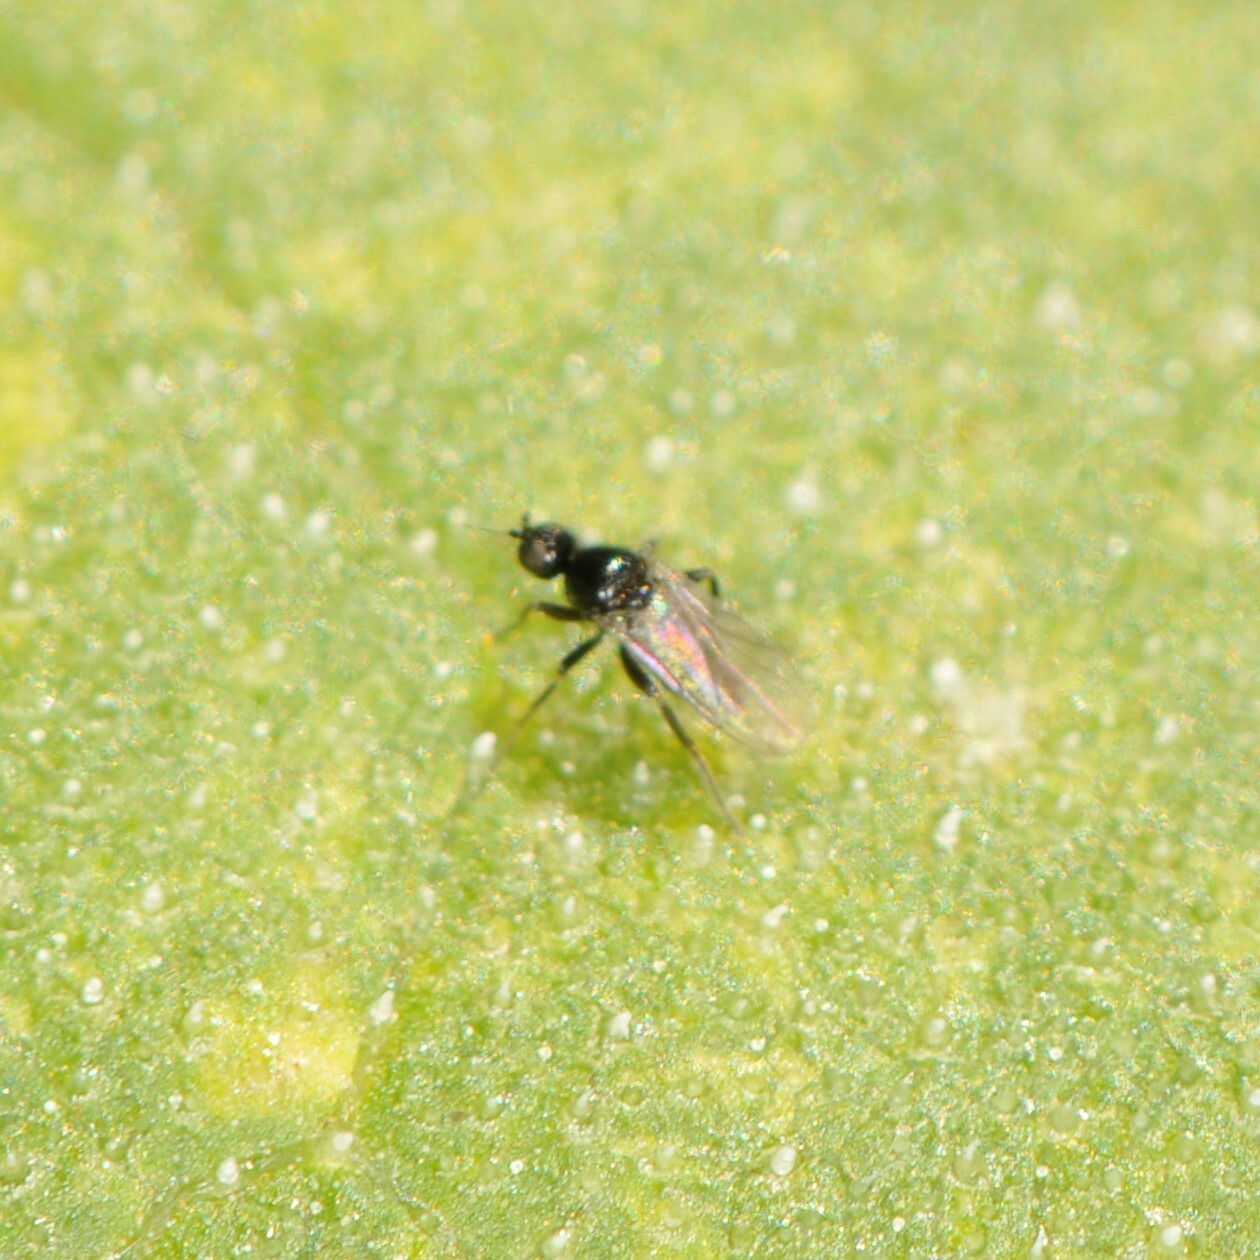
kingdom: Animalia
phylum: Arthropoda
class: Insecta
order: Diptera
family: Hybotidae
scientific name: Hybotidae
